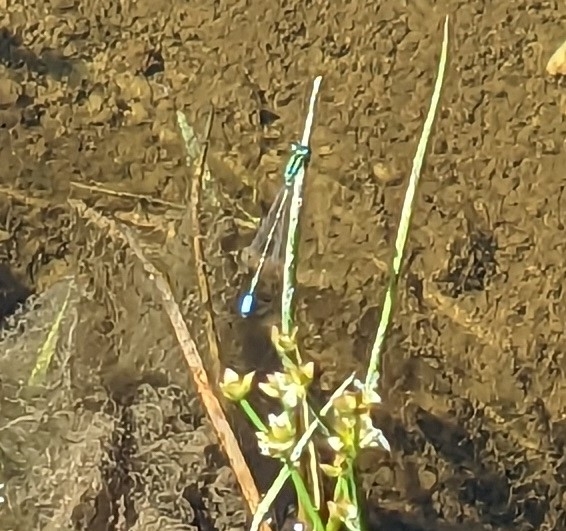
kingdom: Animalia
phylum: Arthropoda
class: Insecta
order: Odonata
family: Coenagrionidae
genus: Ischnura
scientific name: Ischnura verticalis
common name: Eastern forktail
